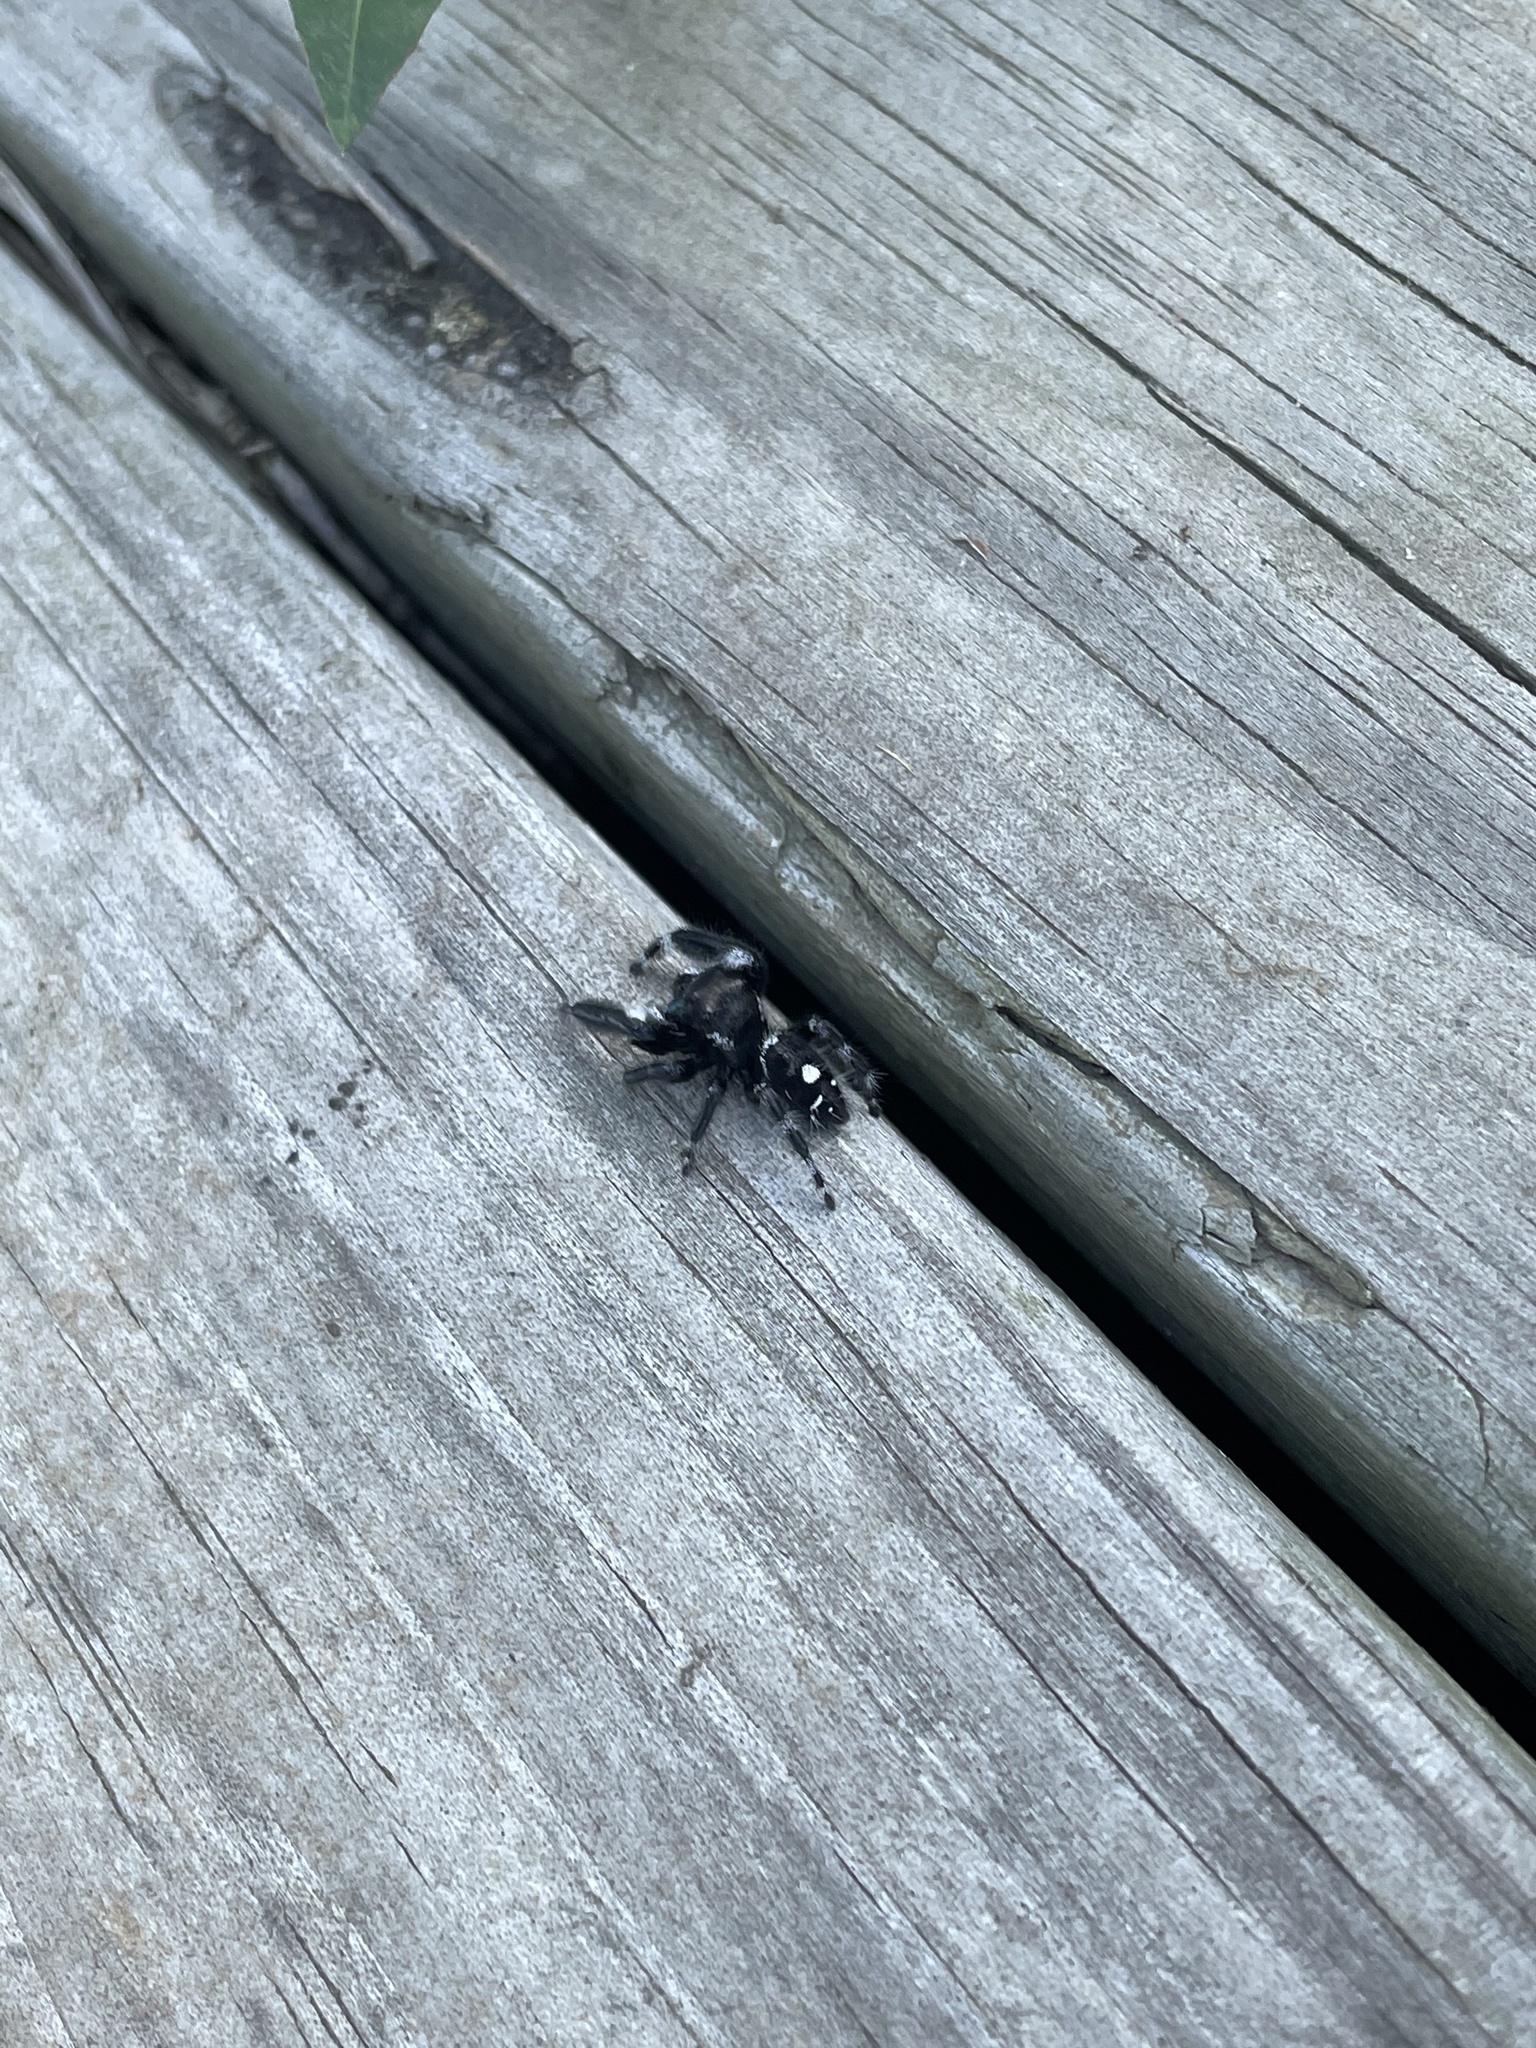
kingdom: Animalia
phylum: Arthropoda
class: Arachnida
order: Araneae
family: Salticidae
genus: Phidippus
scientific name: Phidippus audax
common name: Bold jumper
